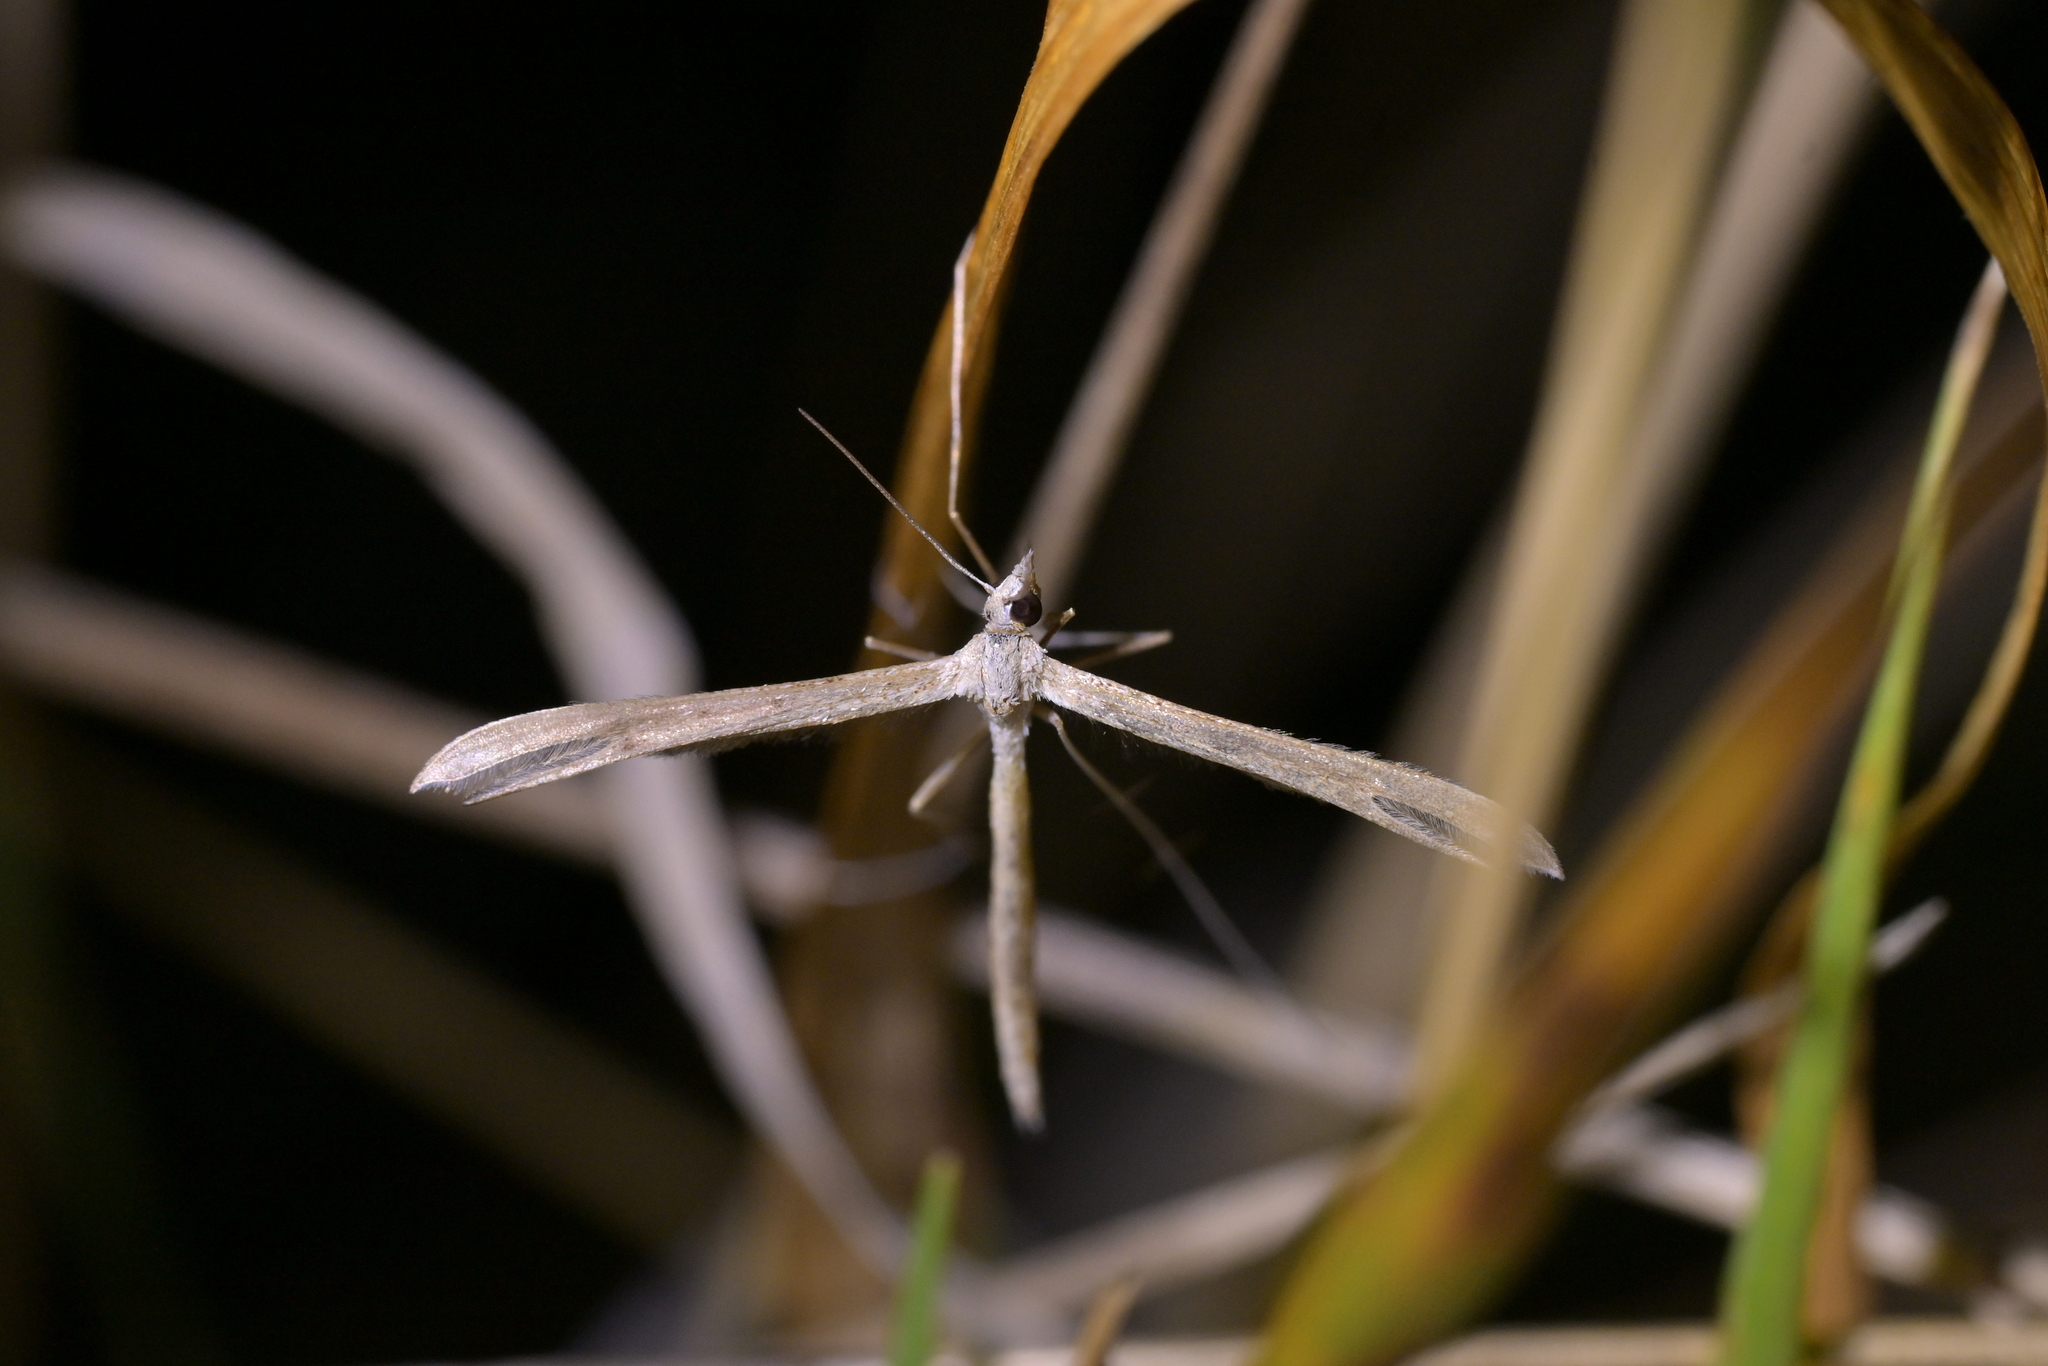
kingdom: Animalia
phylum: Arthropoda
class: Insecta
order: Lepidoptera
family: Pterophoridae
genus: Stenoptilia
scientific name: Stenoptilia zophodactylus
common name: Dowdy plume
